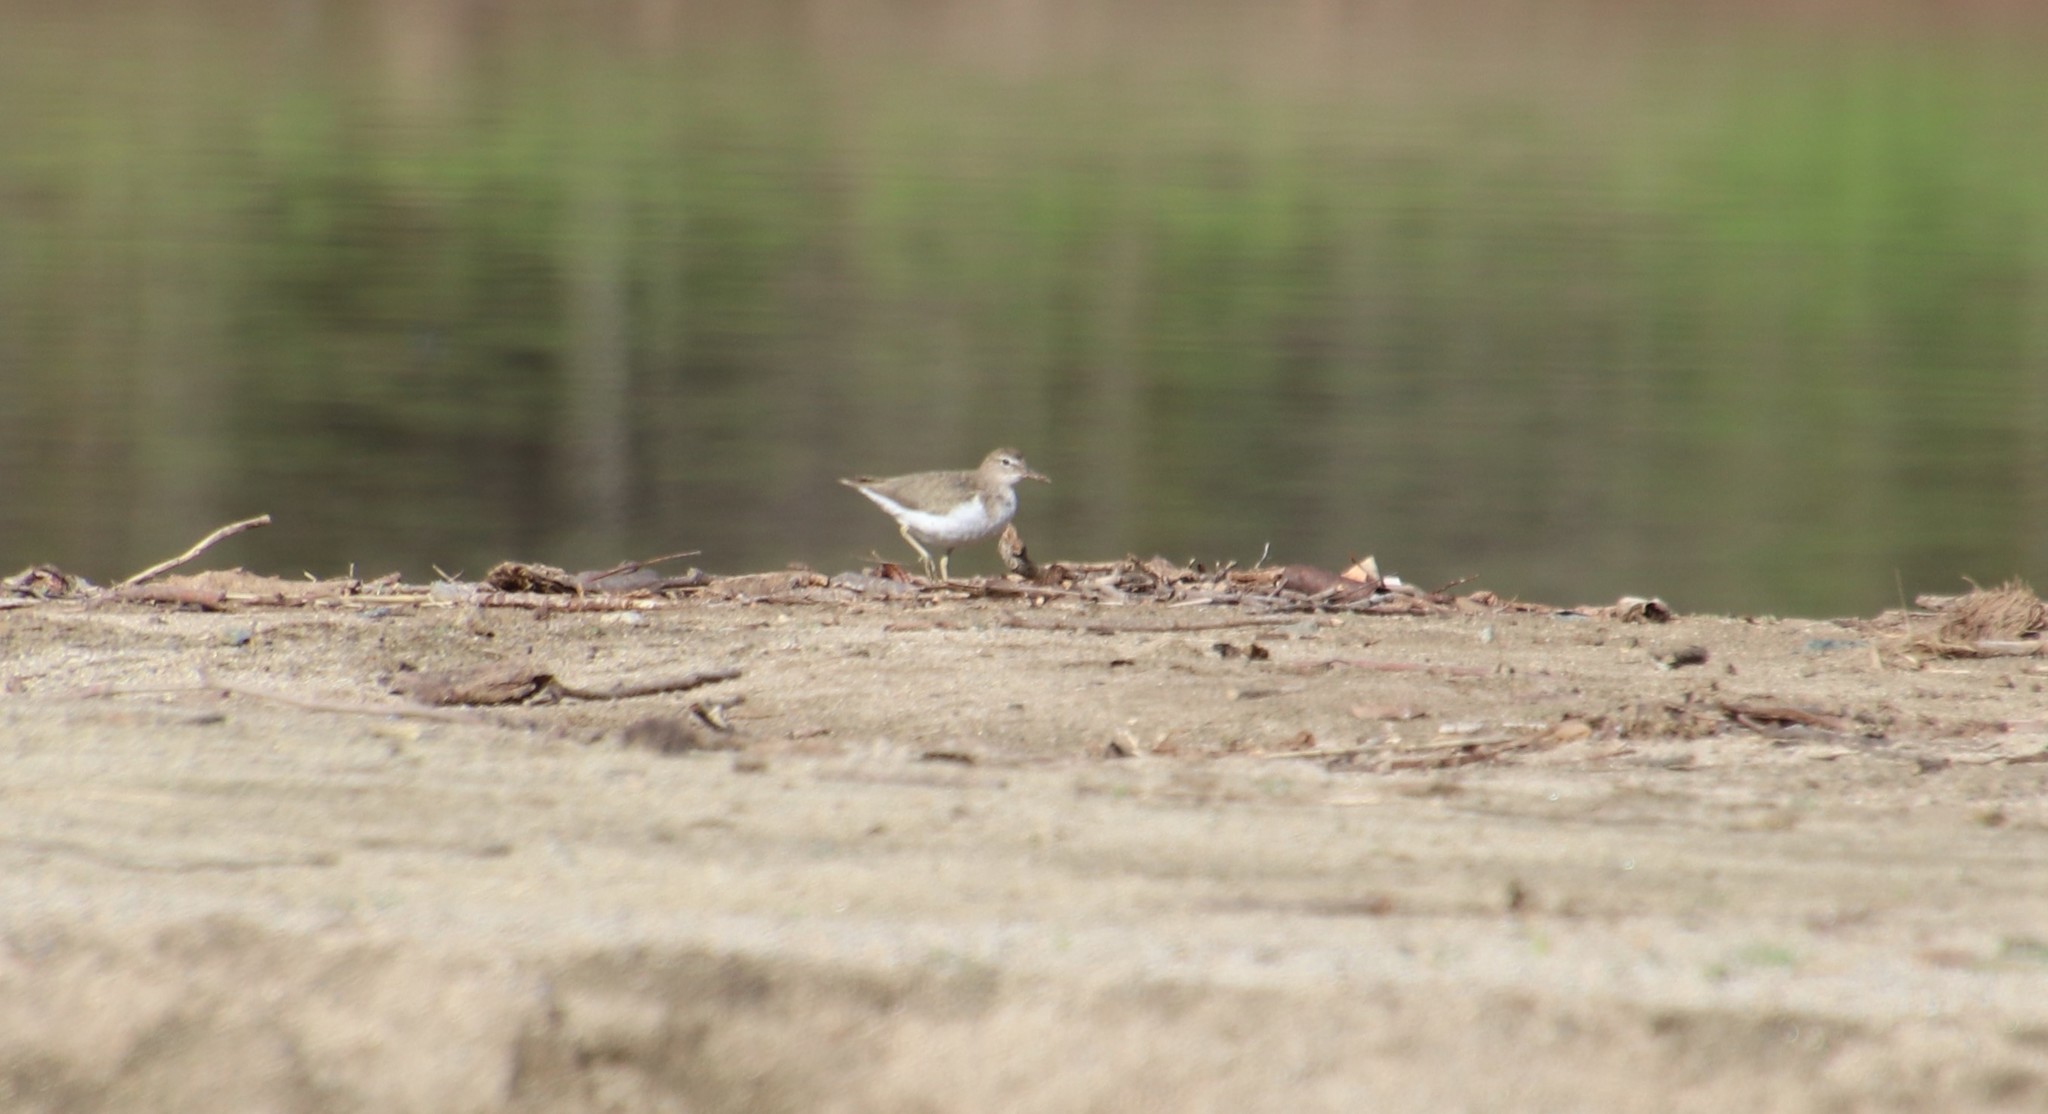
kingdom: Animalia
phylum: Chordata
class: Aves
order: Charadriiformes
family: Scolopacidae
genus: Actitis
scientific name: Actitis macularius
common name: Spotted sandpiper
